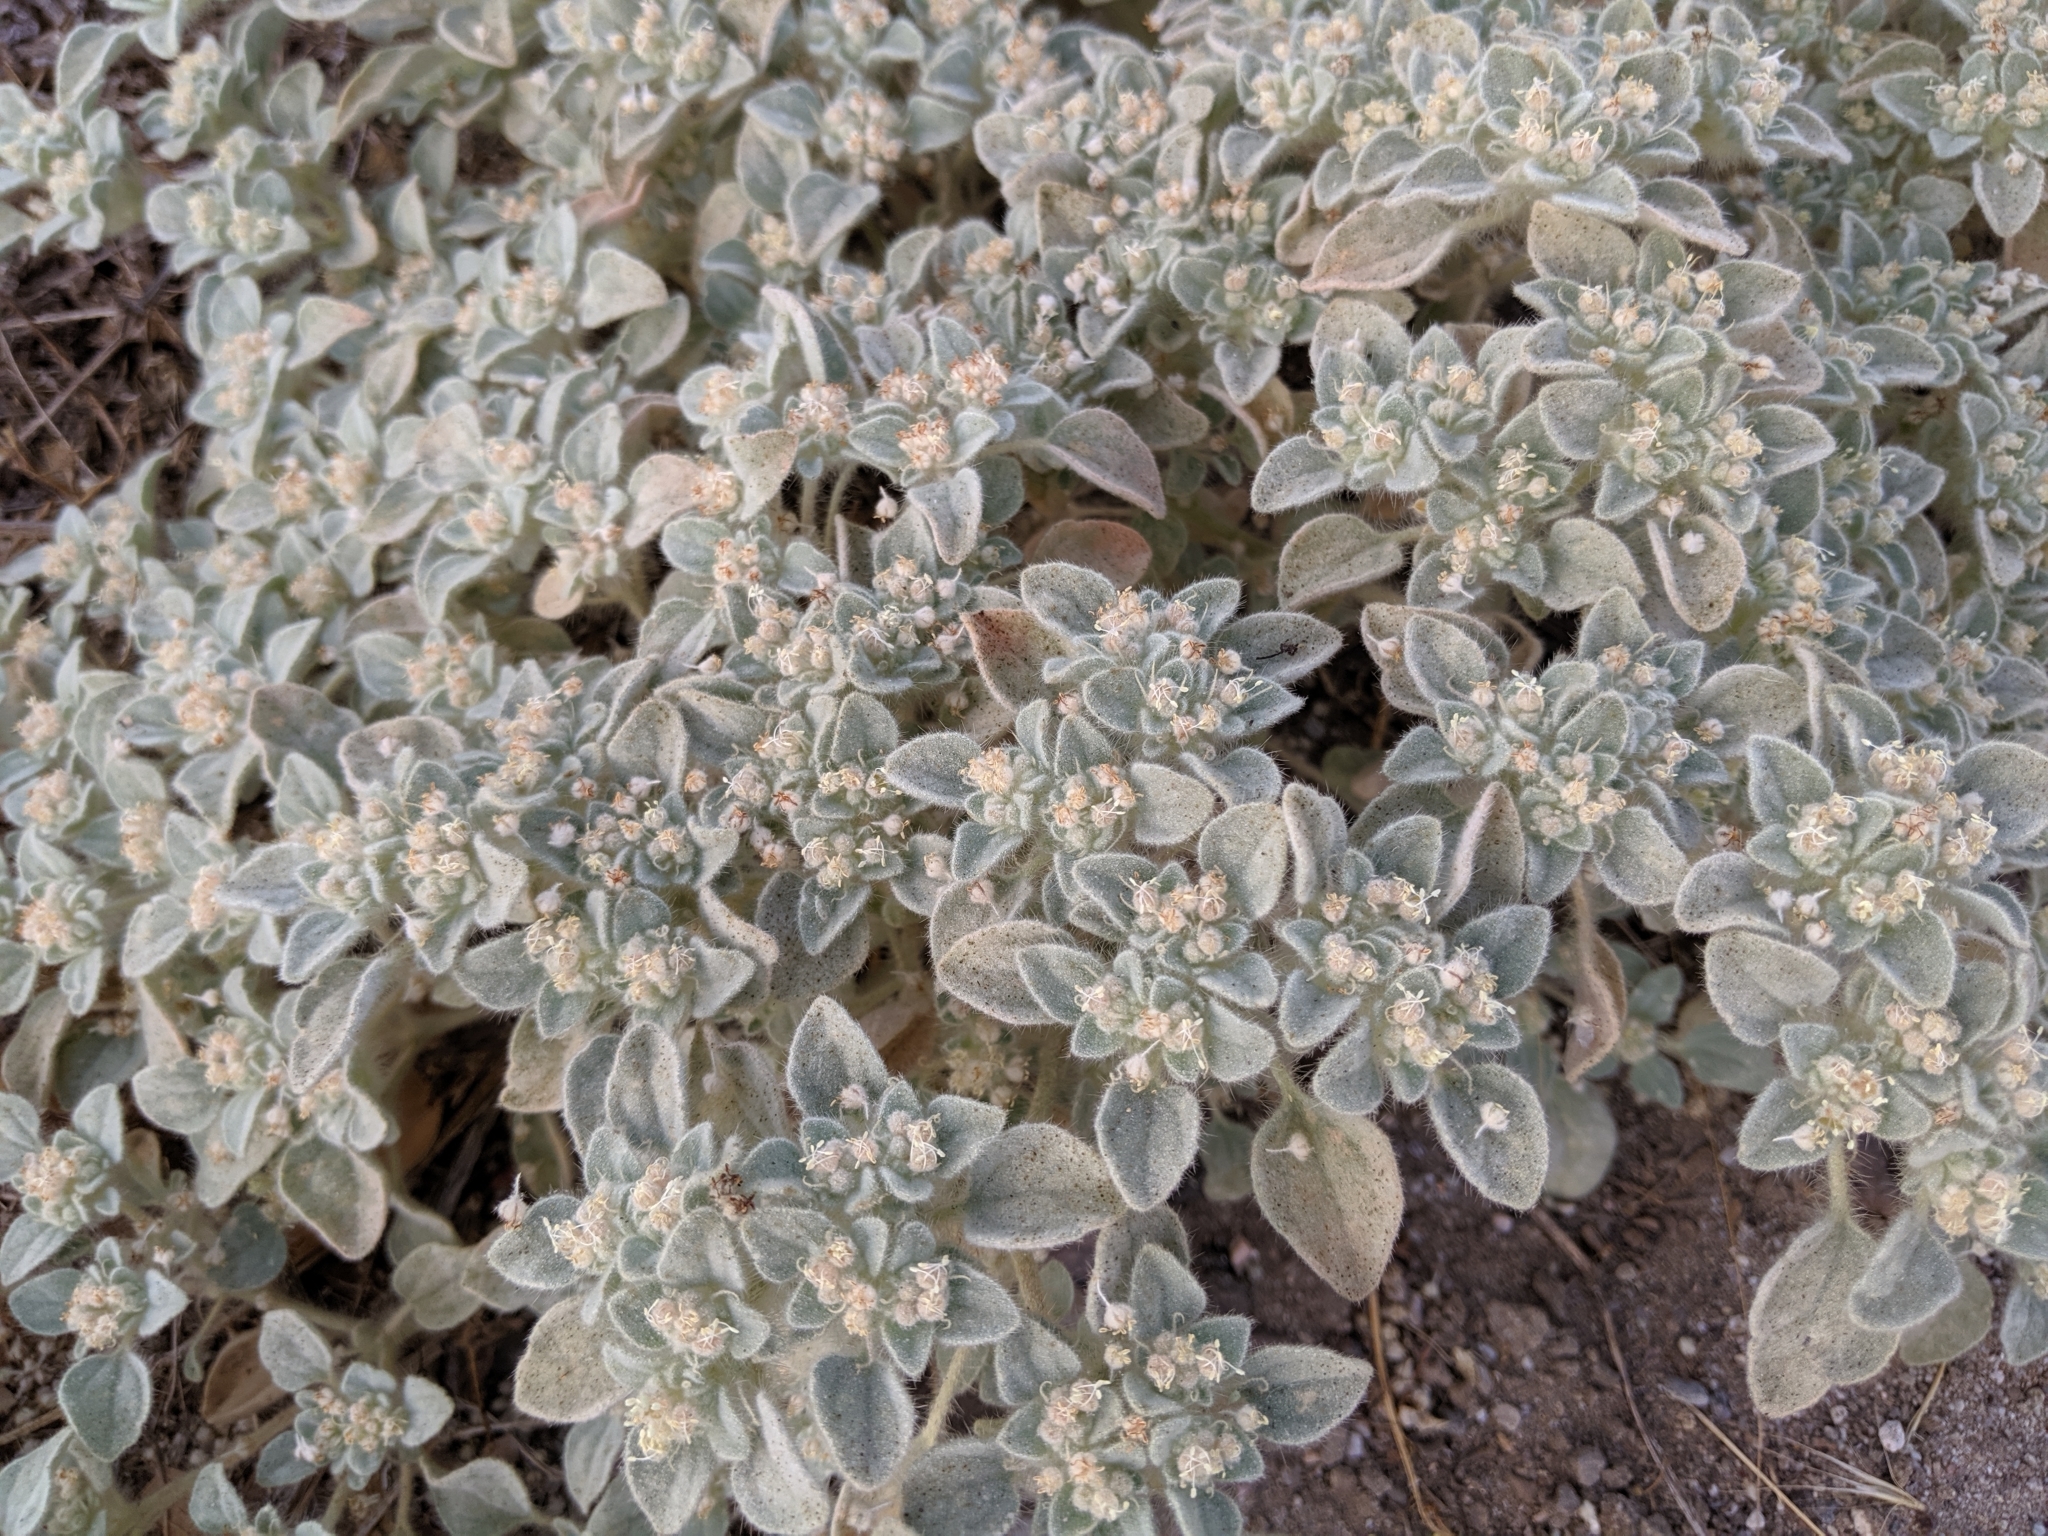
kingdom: Plantae
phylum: Tracheophyta
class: Magnoliopsida
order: Malpighiales
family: Euphorbiaceae
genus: Croton
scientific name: Croton setiger
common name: Dove weed
